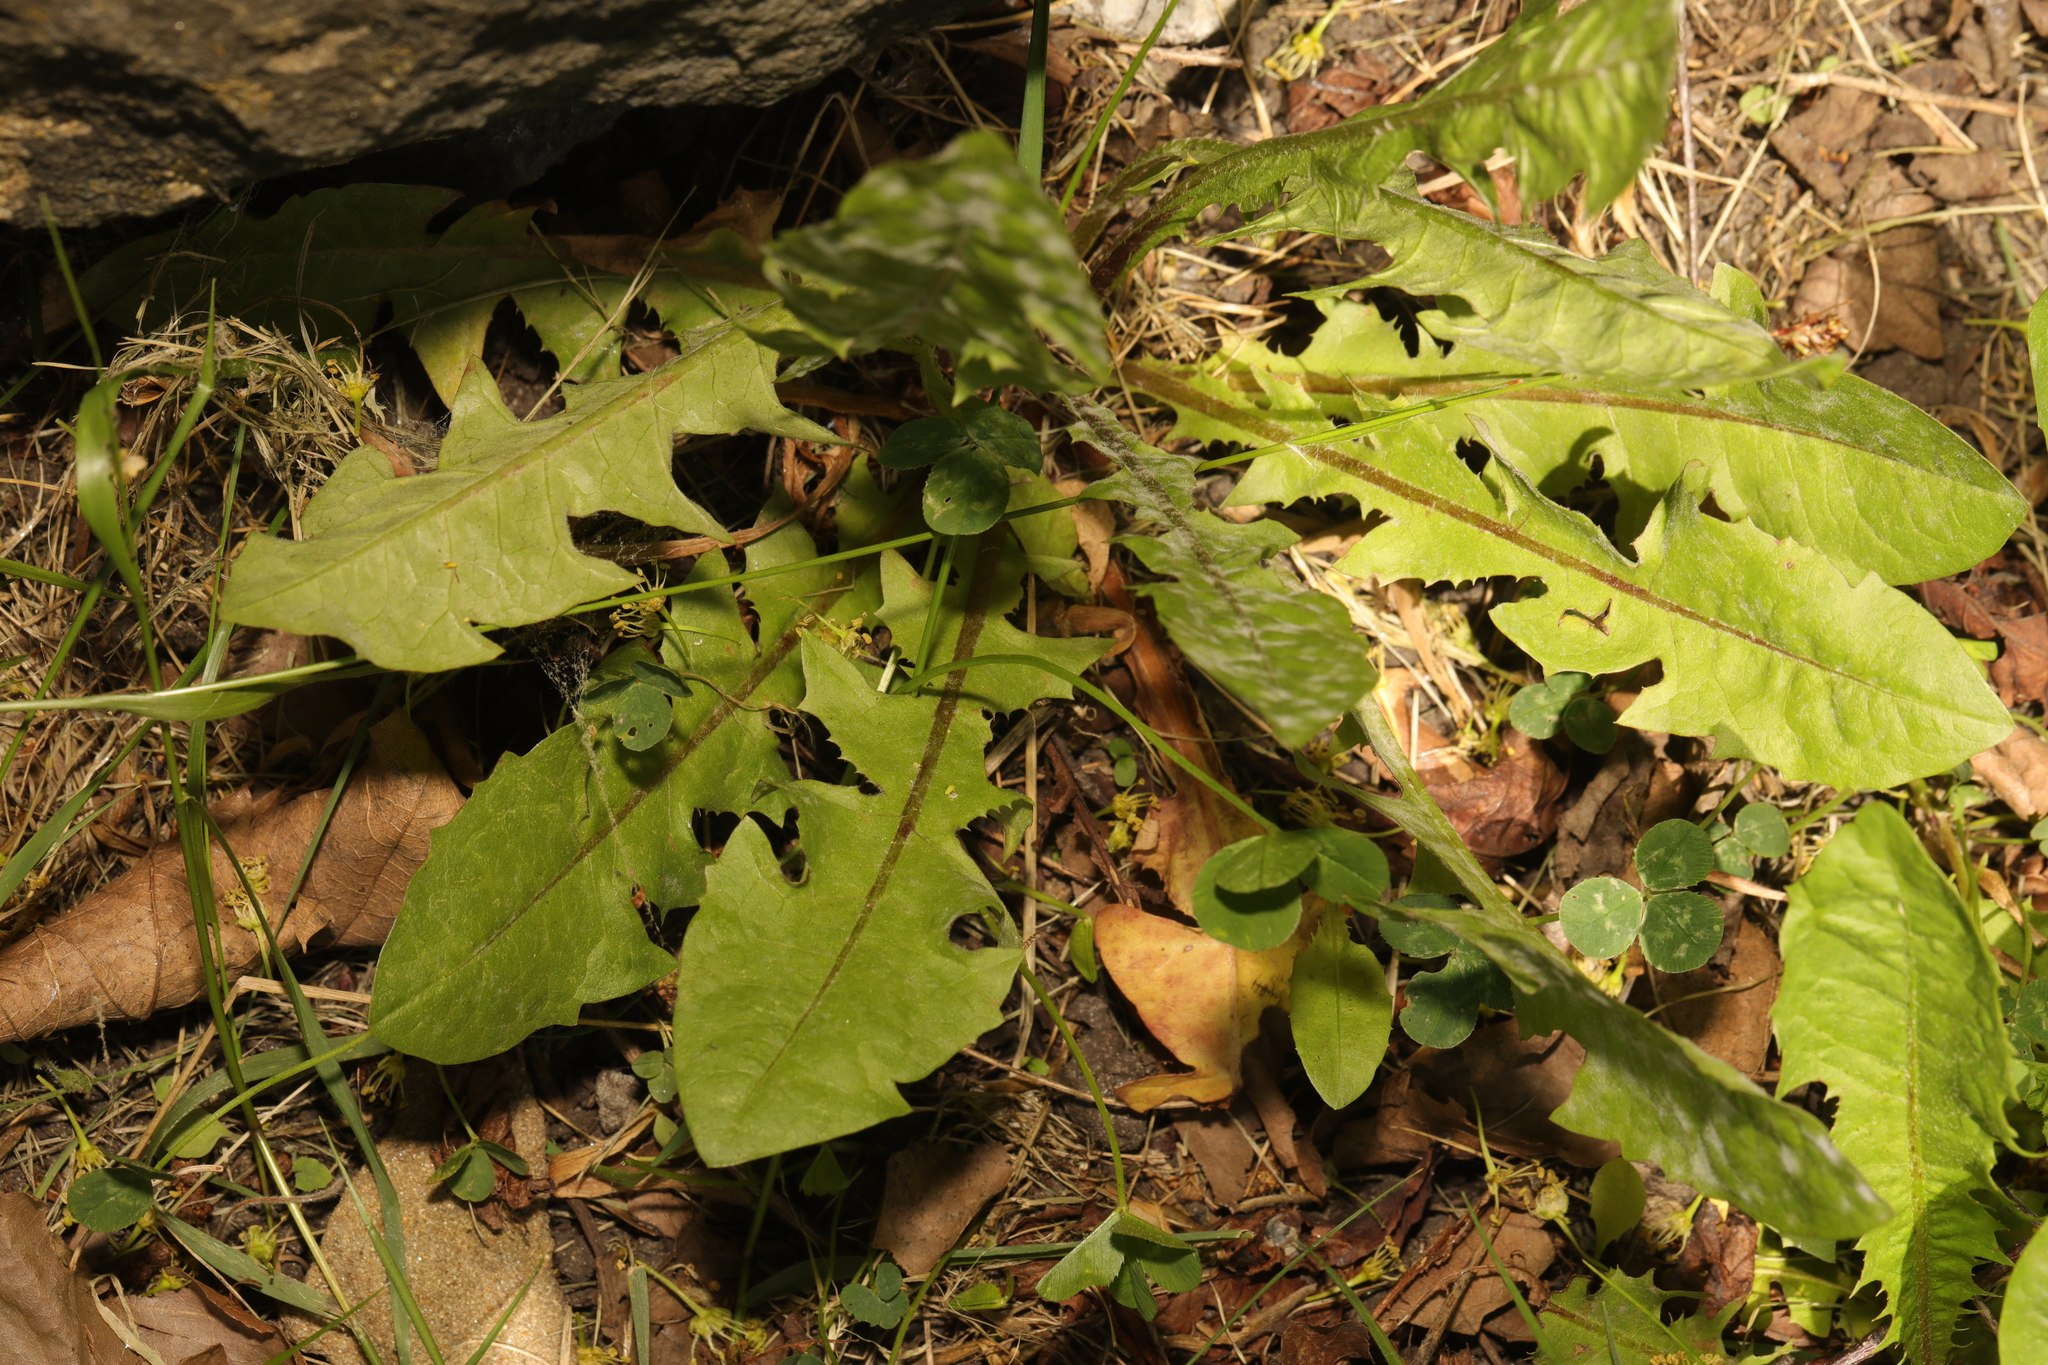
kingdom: Plantae
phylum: Tracheophyta
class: Magnoliopsida
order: Asterales
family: Asteraceae
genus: Taraxacum
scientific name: Taraxacum officinale
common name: Common dandelion
